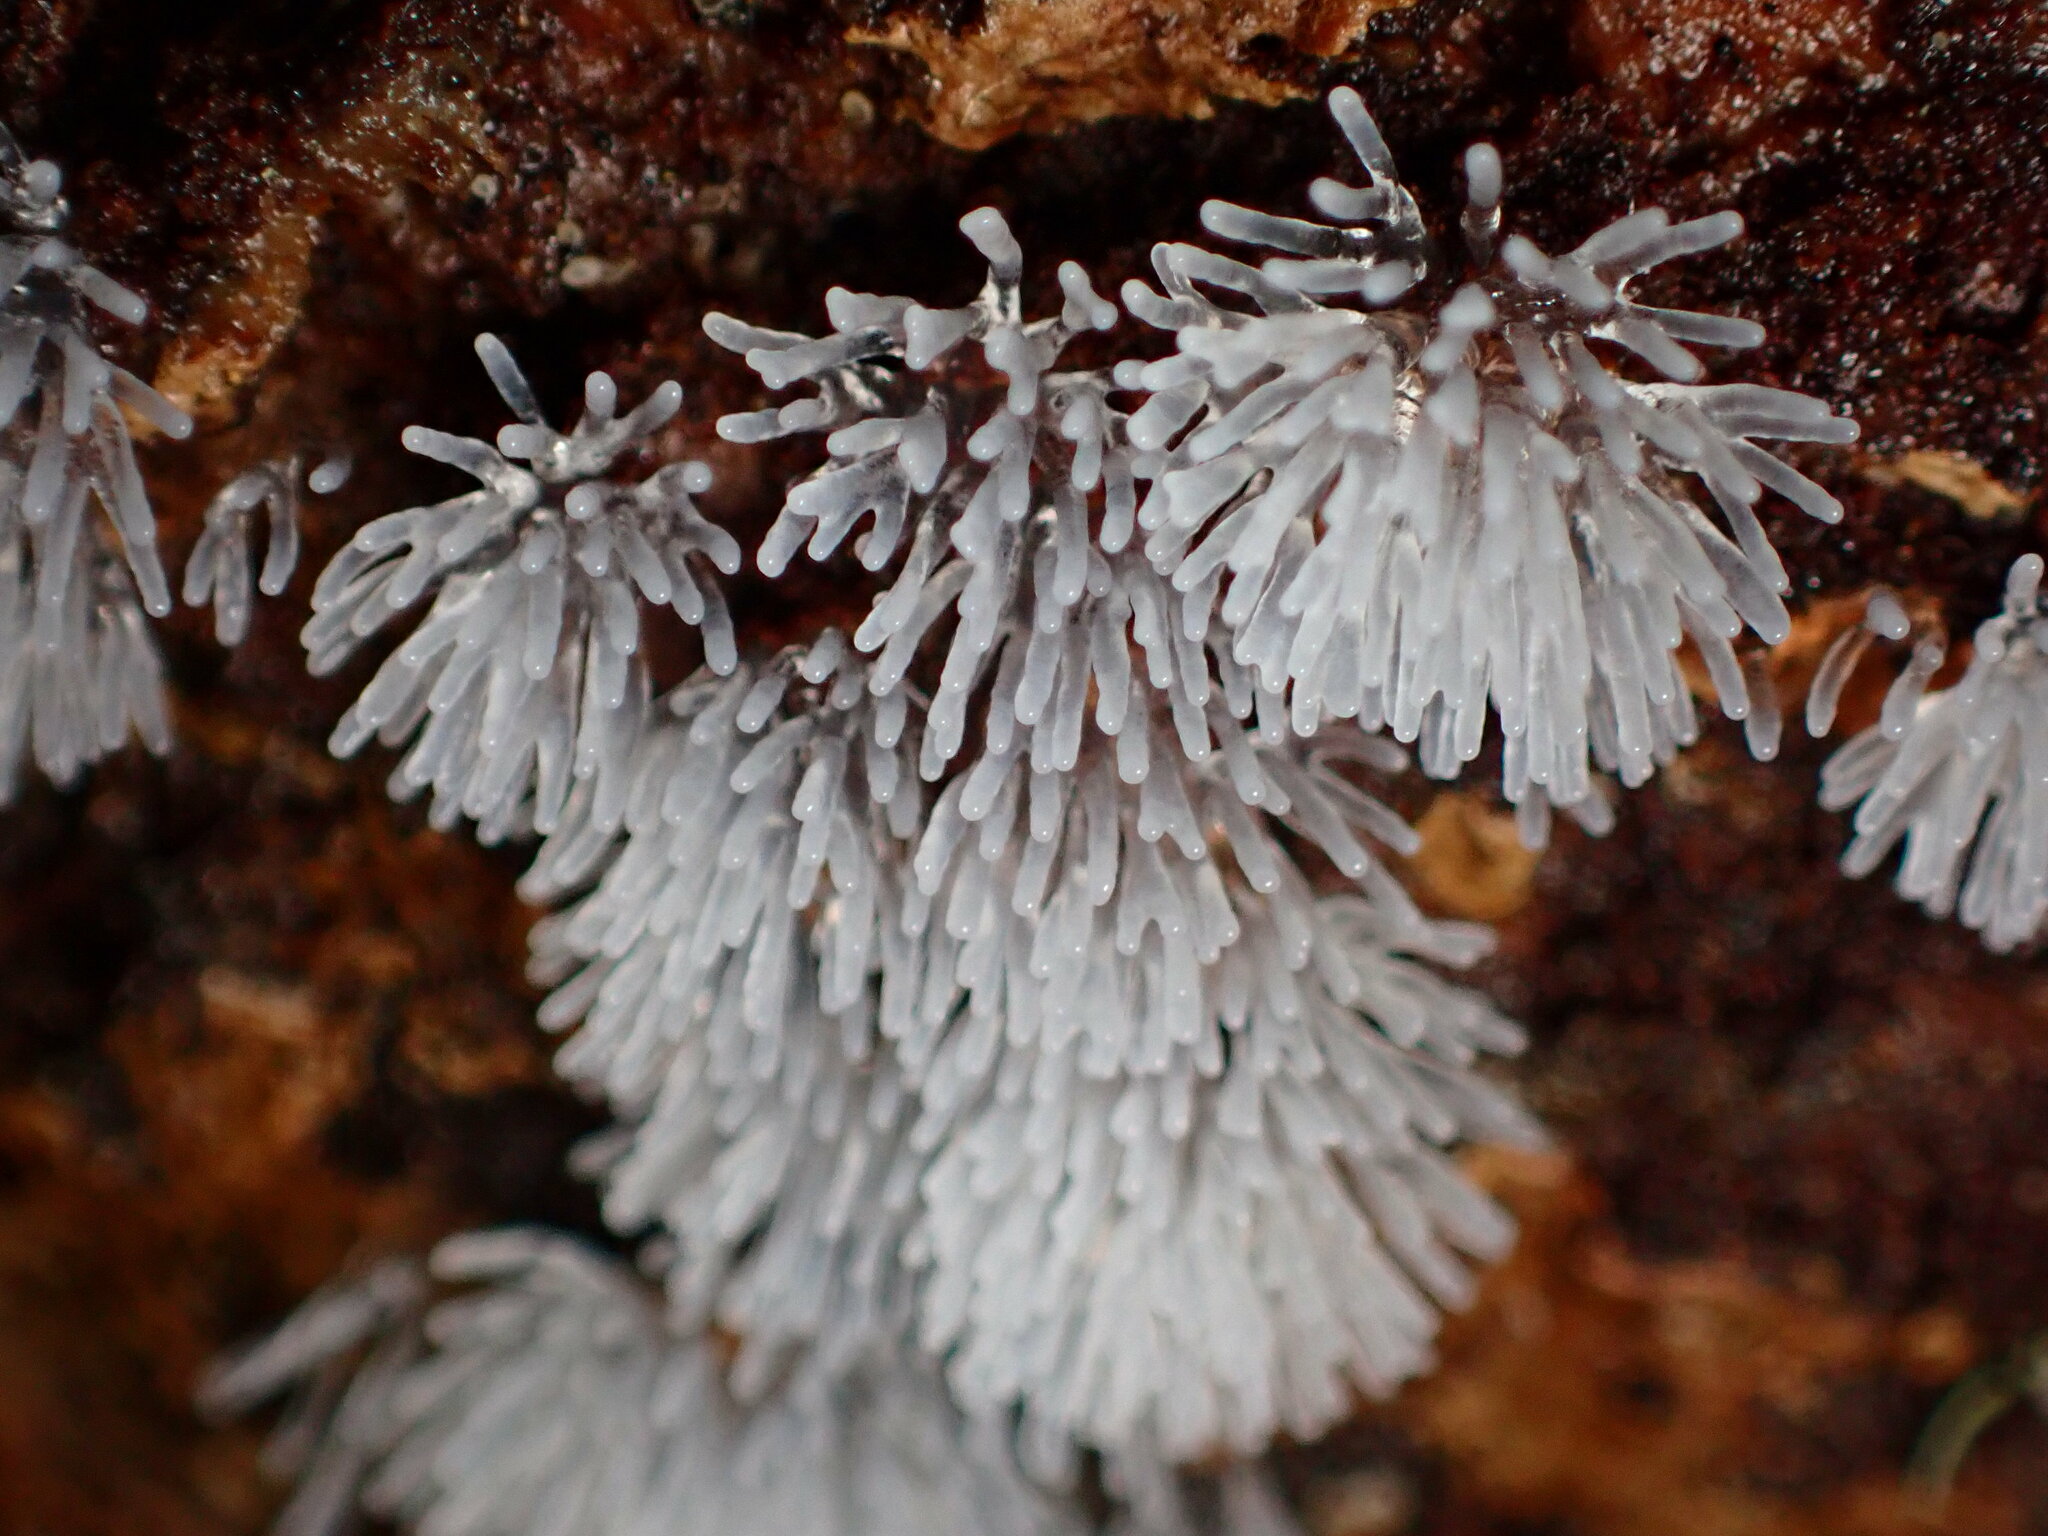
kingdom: Protozoa
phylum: Mycetozoa
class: Protosteliomycetes
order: Ceratiomyxales
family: Ceratiomyxaceae
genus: Ceratiomyxa
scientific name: Ceratiomyxa fruticulosa
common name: Honeycomb coral slime mold
